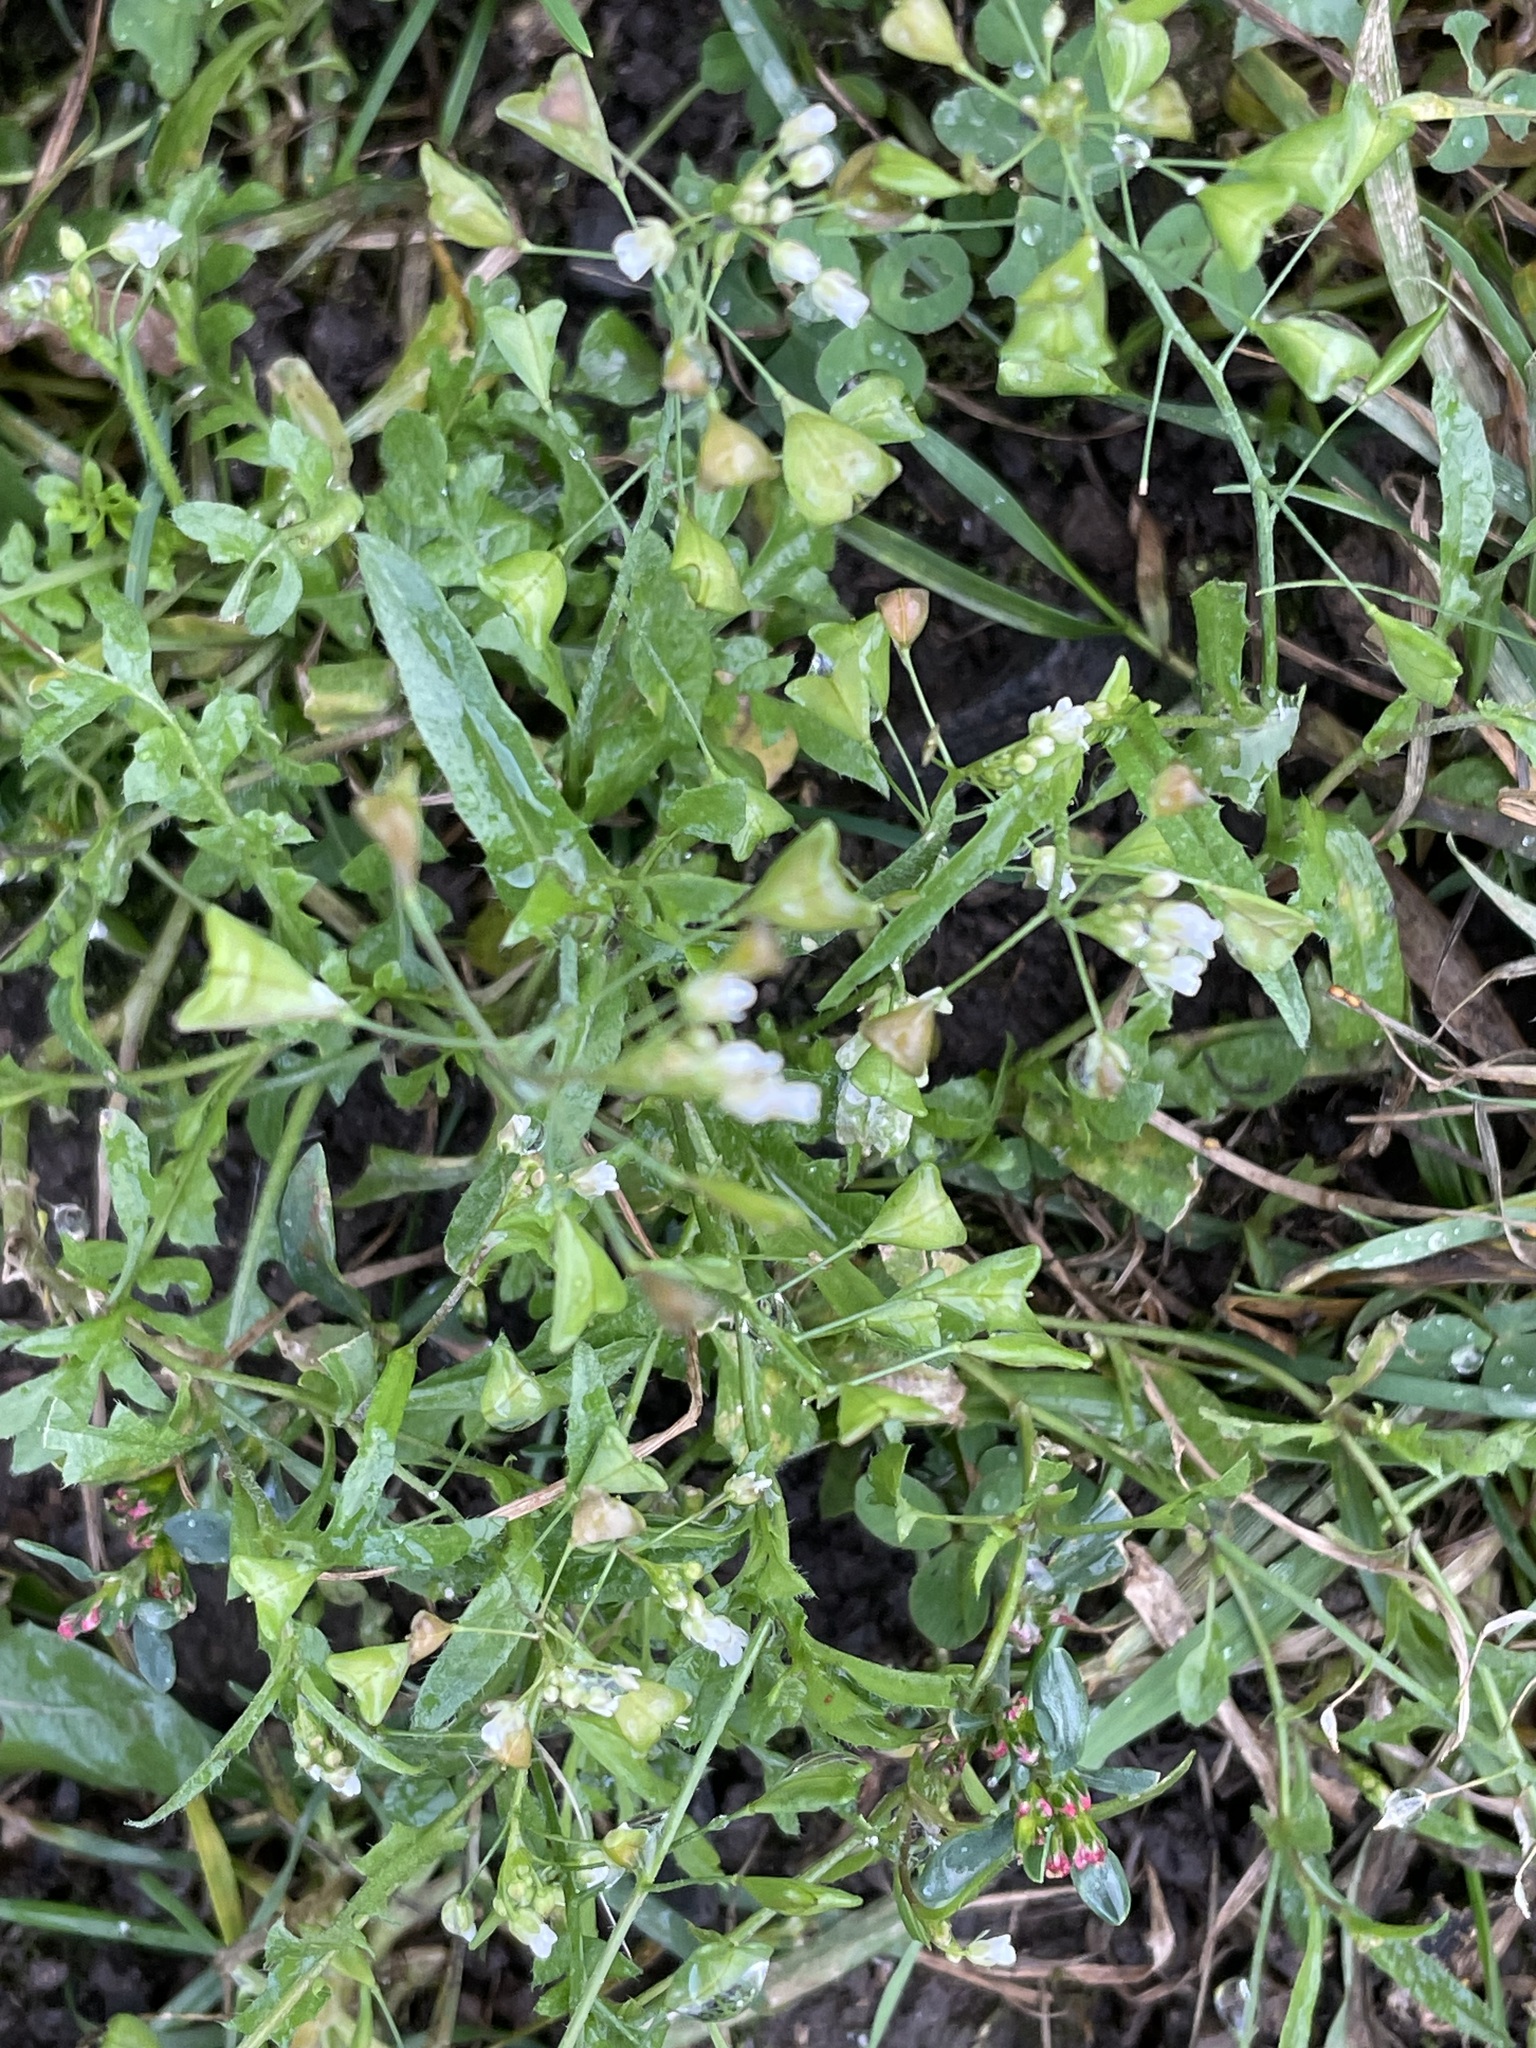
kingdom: Plantae
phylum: Tracheophyta
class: Magnoliopsida
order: Brassicales
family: Brassicaceae
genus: Capsella
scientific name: Capsella bursa-pastoris
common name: Shepherd's purse
